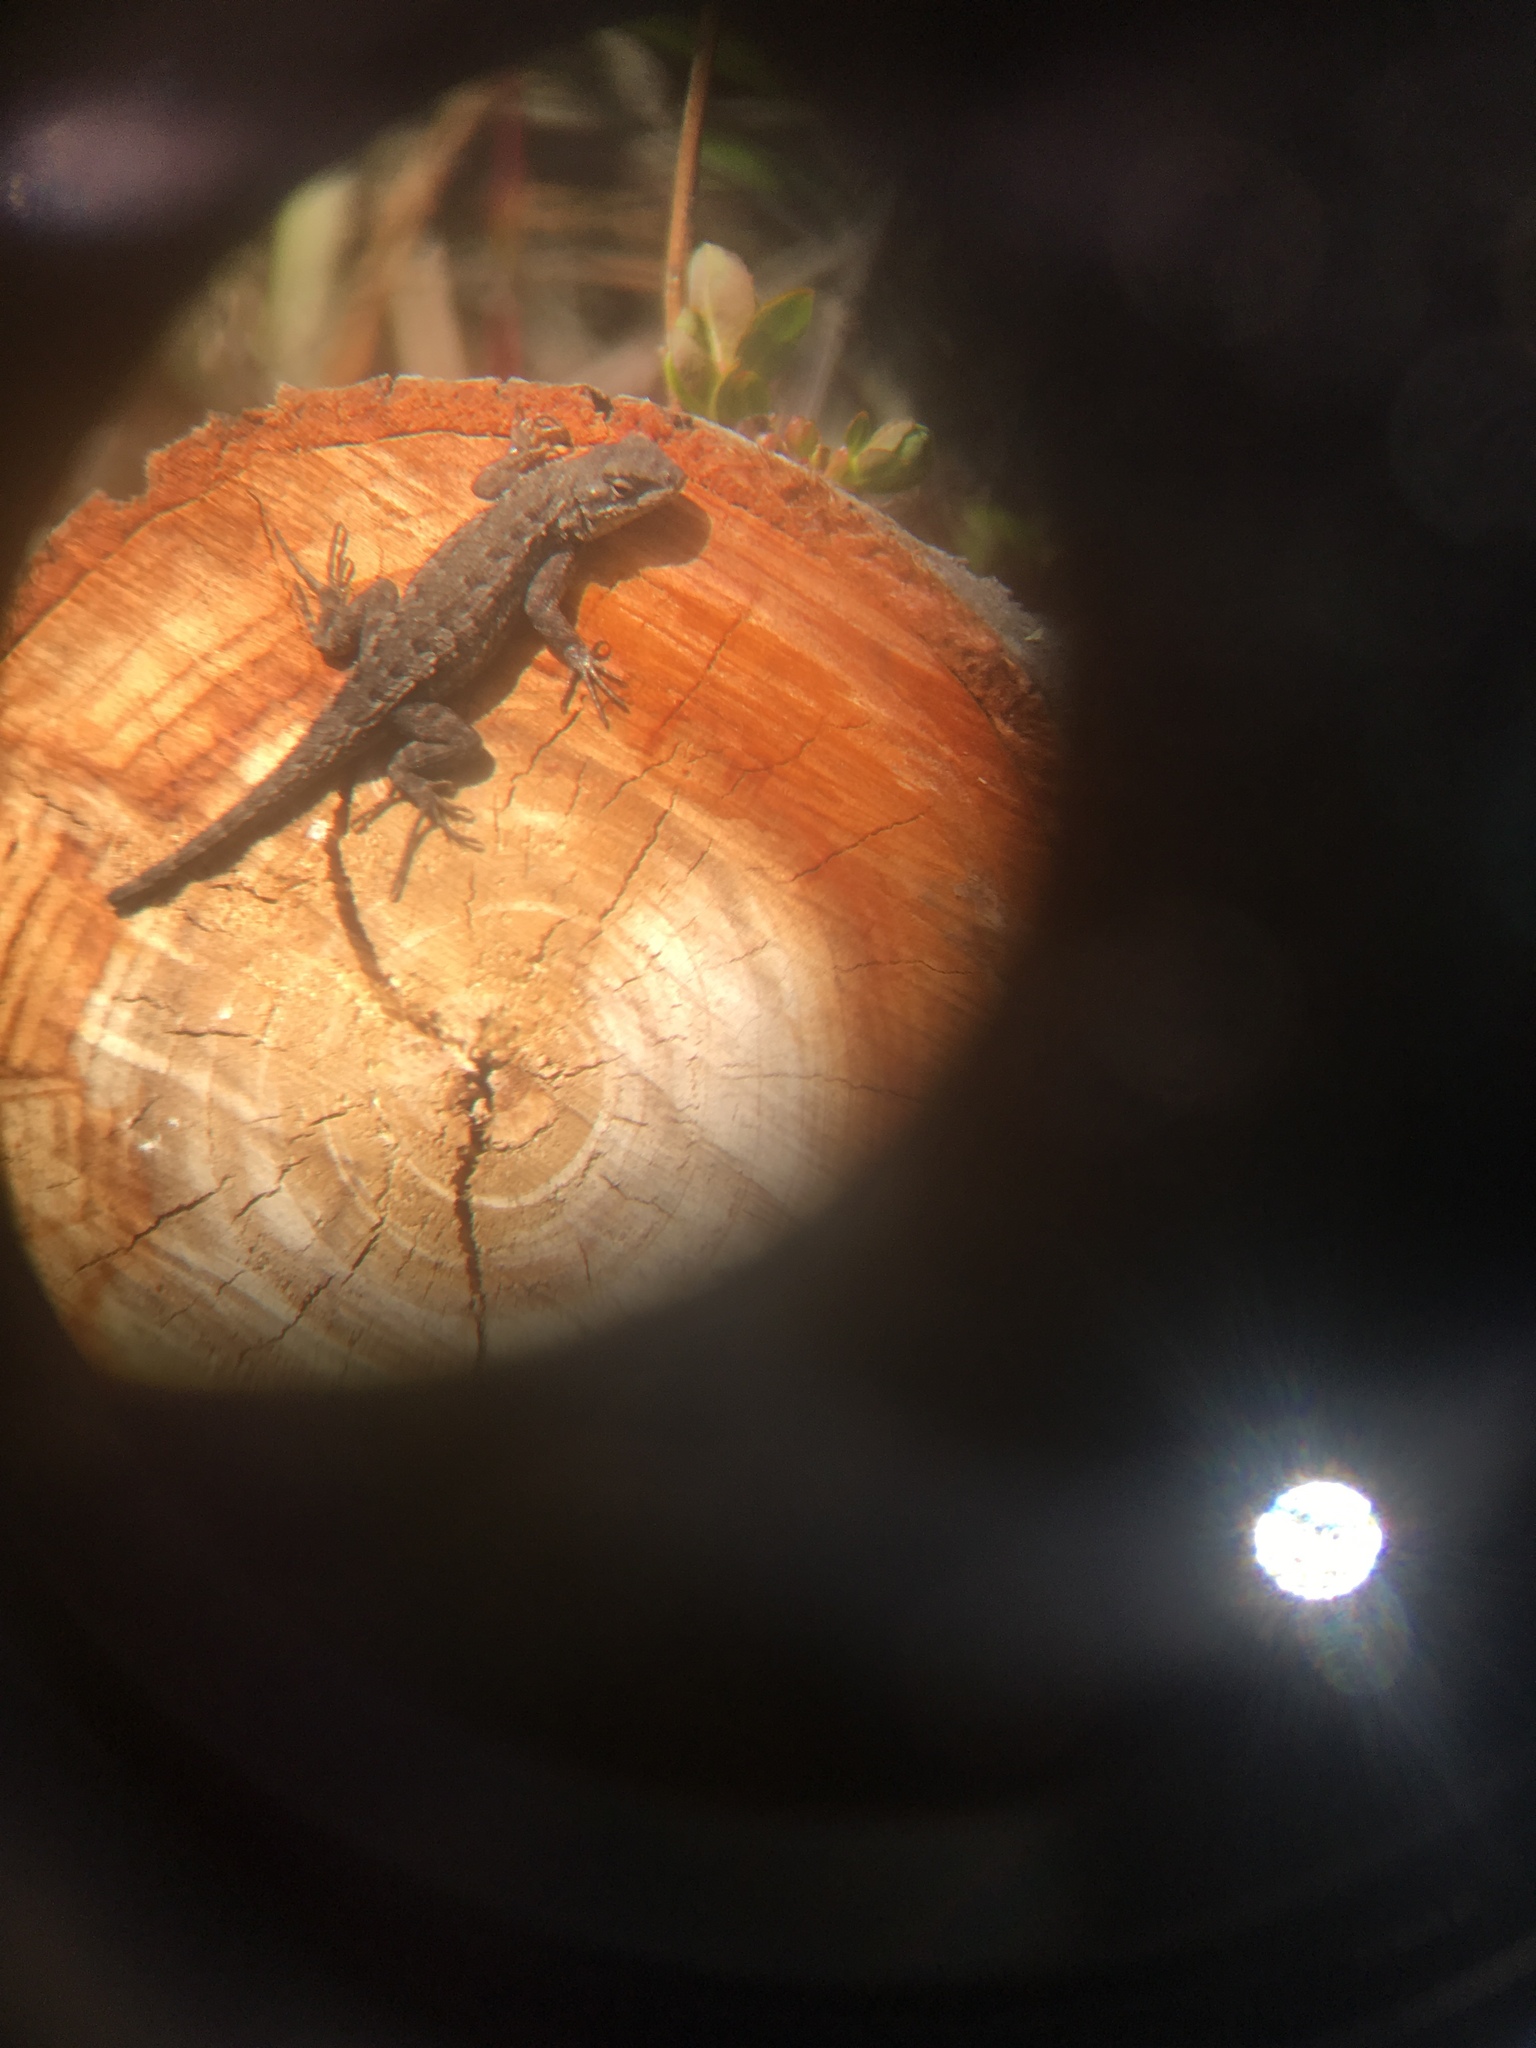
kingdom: Animalia
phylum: Chordata
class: Squamata
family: Phrynosomatidae
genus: Sceloporus
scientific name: Sceloporus occidentalis
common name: Western fence lizard
